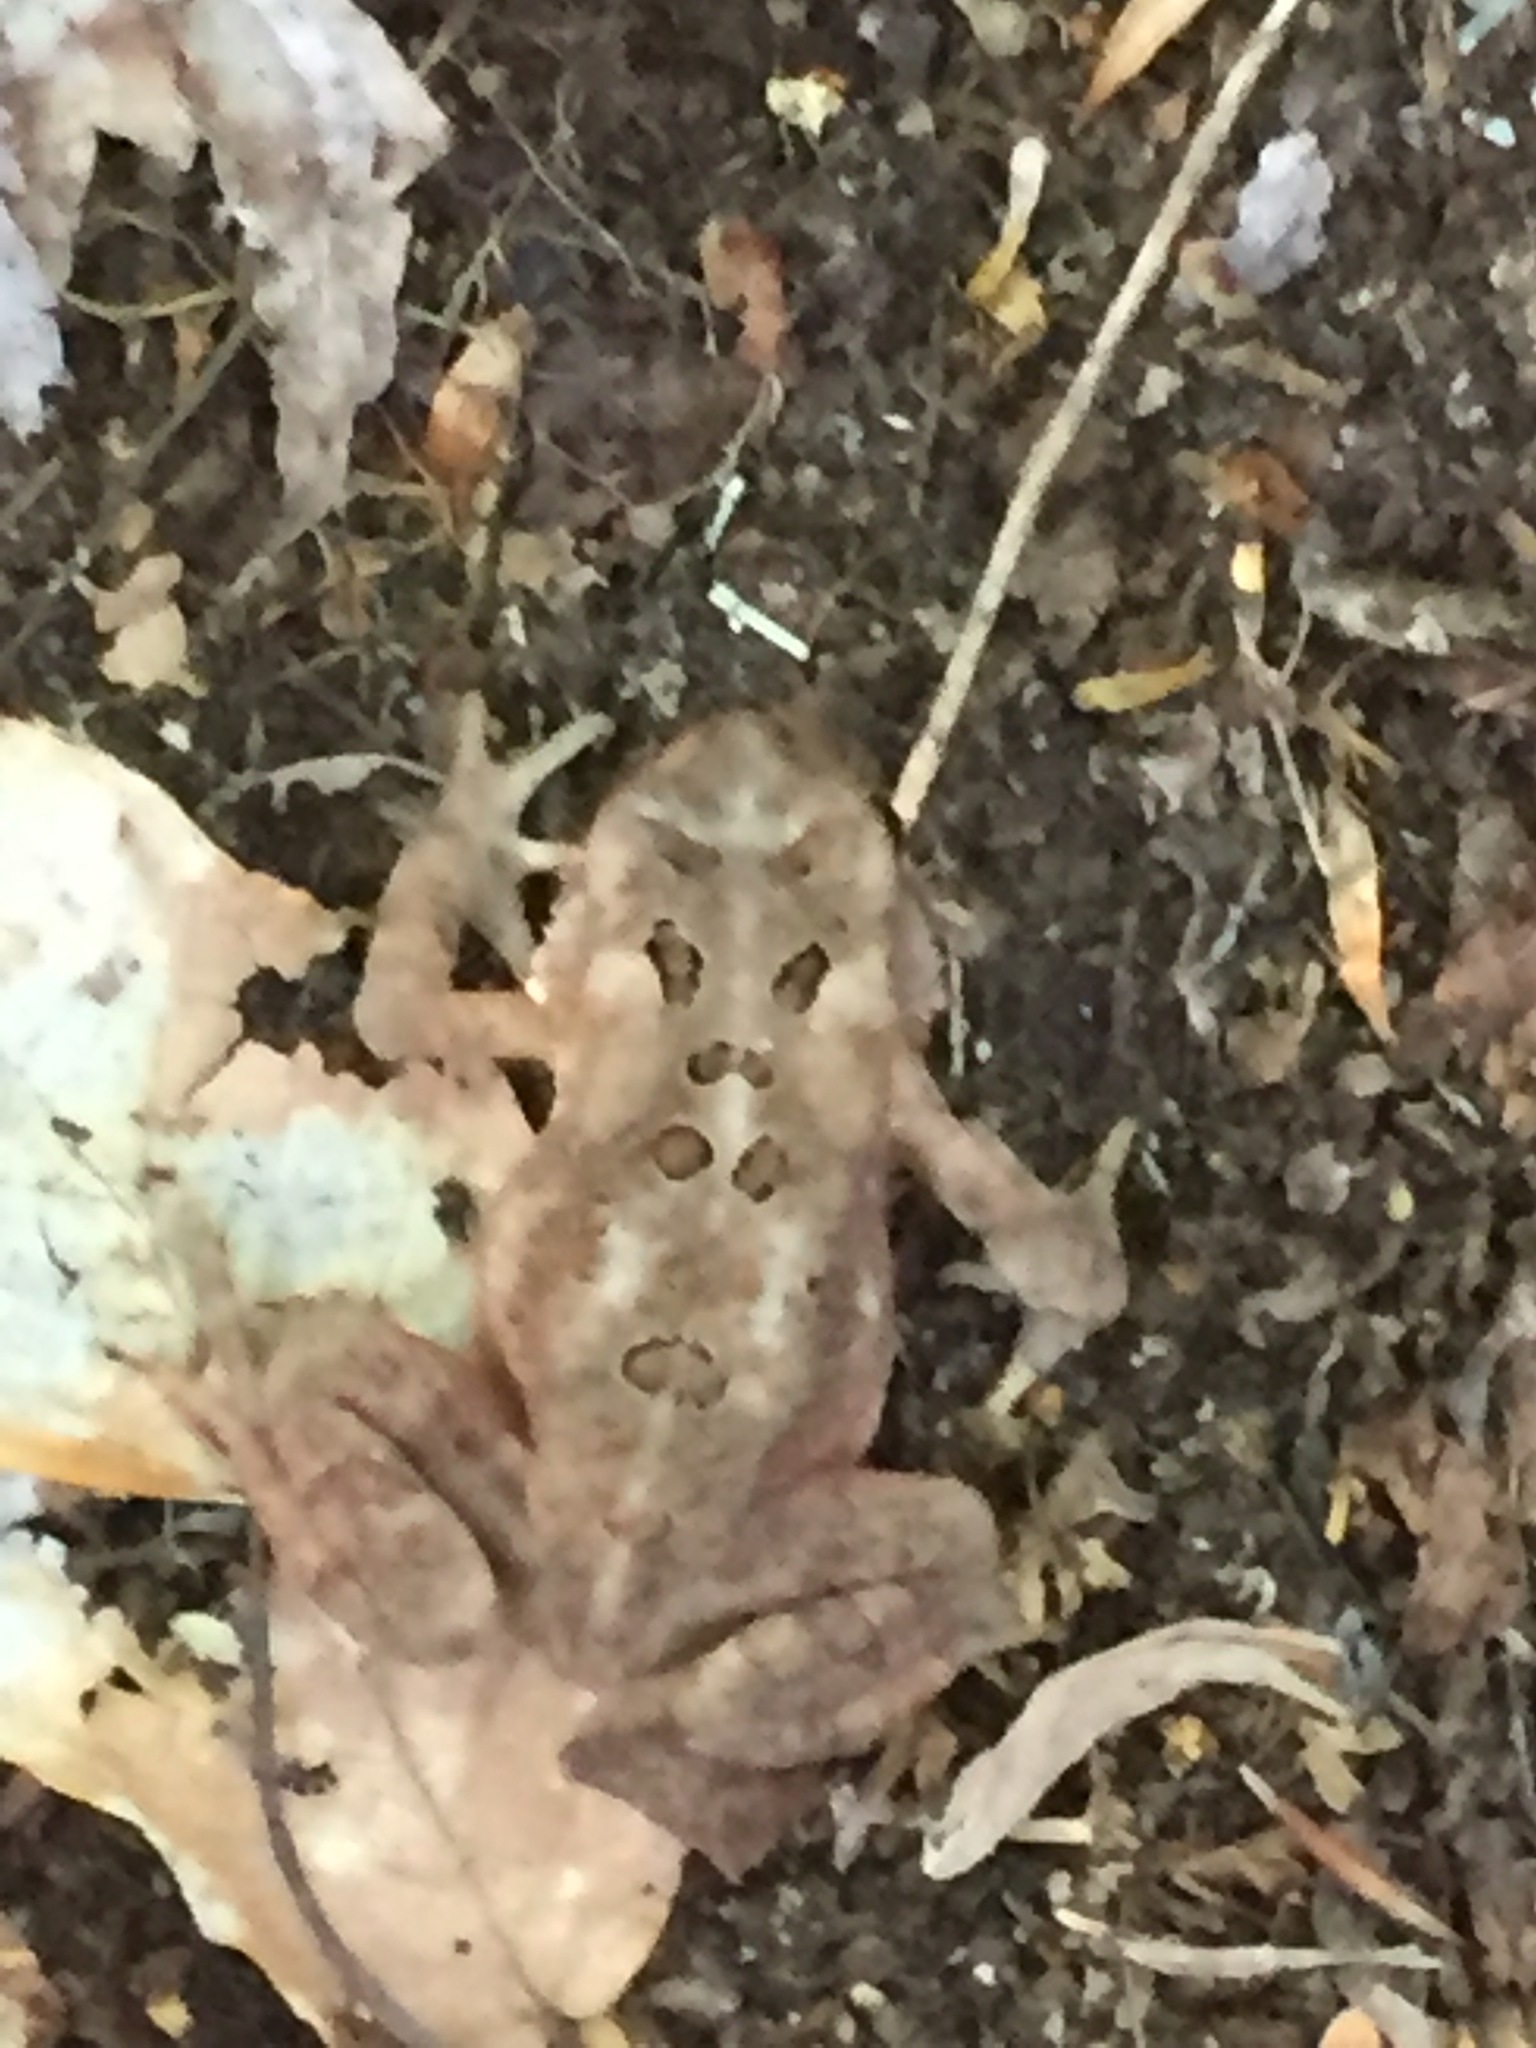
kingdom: Animalia
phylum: Chordata
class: Amphibia
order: Anura
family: Bufonidae
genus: Anaxyrus
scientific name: Anaxyrus americanus
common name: American toad
